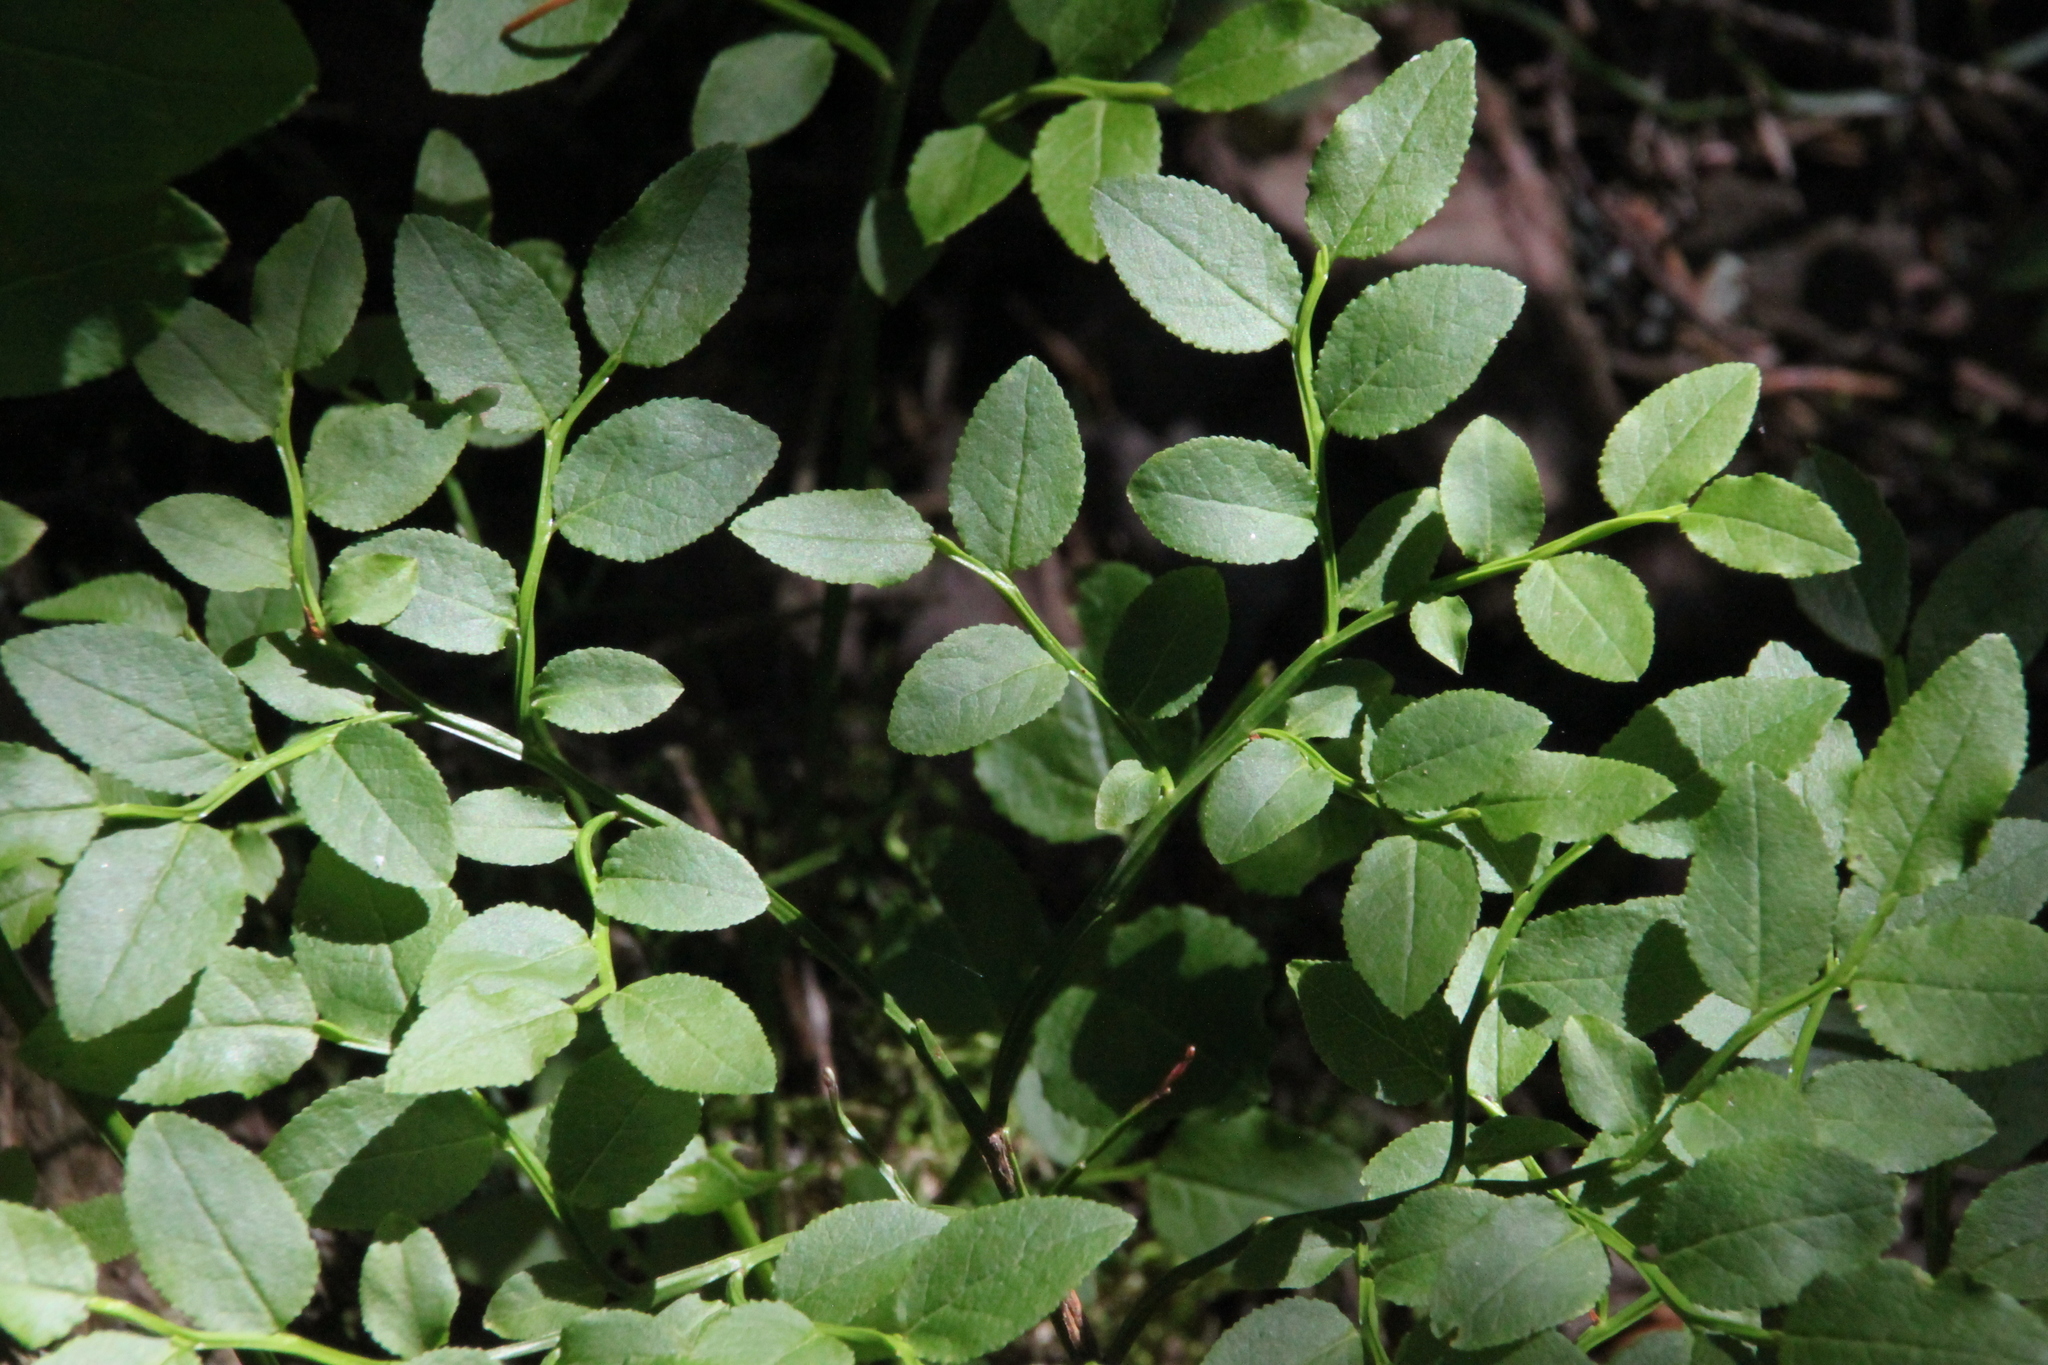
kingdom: Plantae
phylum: Tracheophyta
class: Magnoliopsida
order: Ericales
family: Ericaceae
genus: Vaccinium
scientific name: Vaccinium myrtillus
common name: Bilberry
